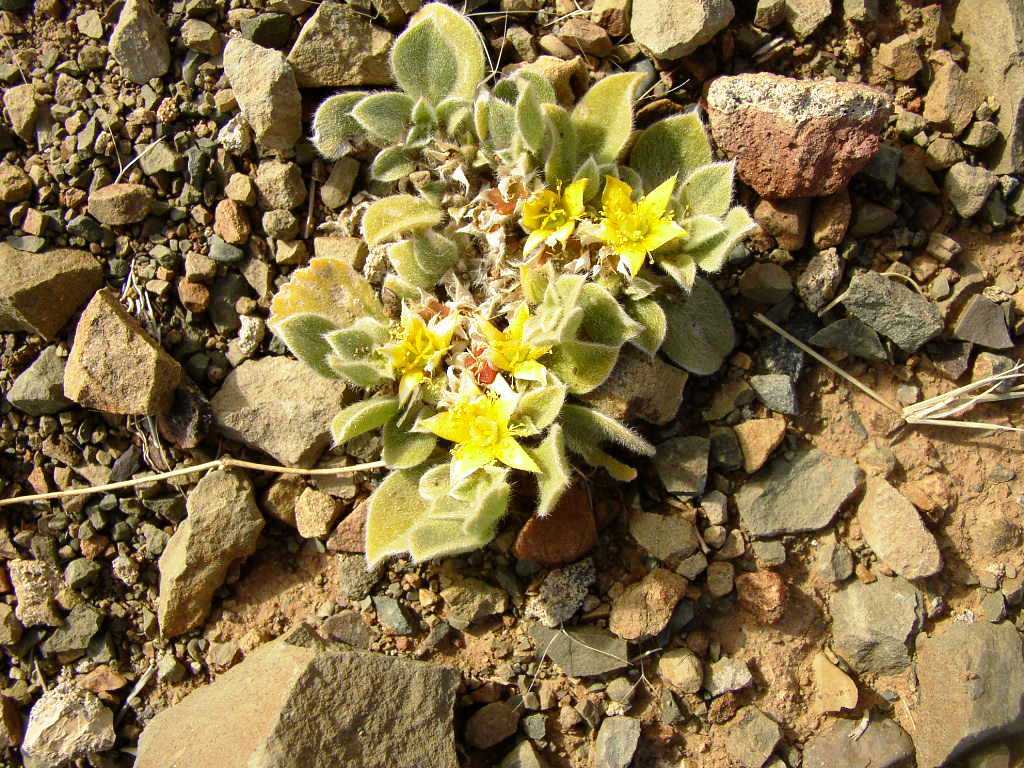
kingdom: Plantae
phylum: Tracheophyta
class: Magnoliopsida
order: Caryophyllales
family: Aizoaceae
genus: Aizoon
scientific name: Aizoon glinoides
